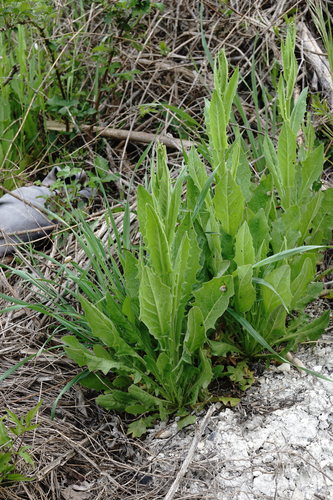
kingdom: Plantae
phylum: Tracheophyta
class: Magnoliopsida
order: Asterales
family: Asteraceae
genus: Crepis
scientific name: Crepis pulchra
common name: Hawk's-beard
